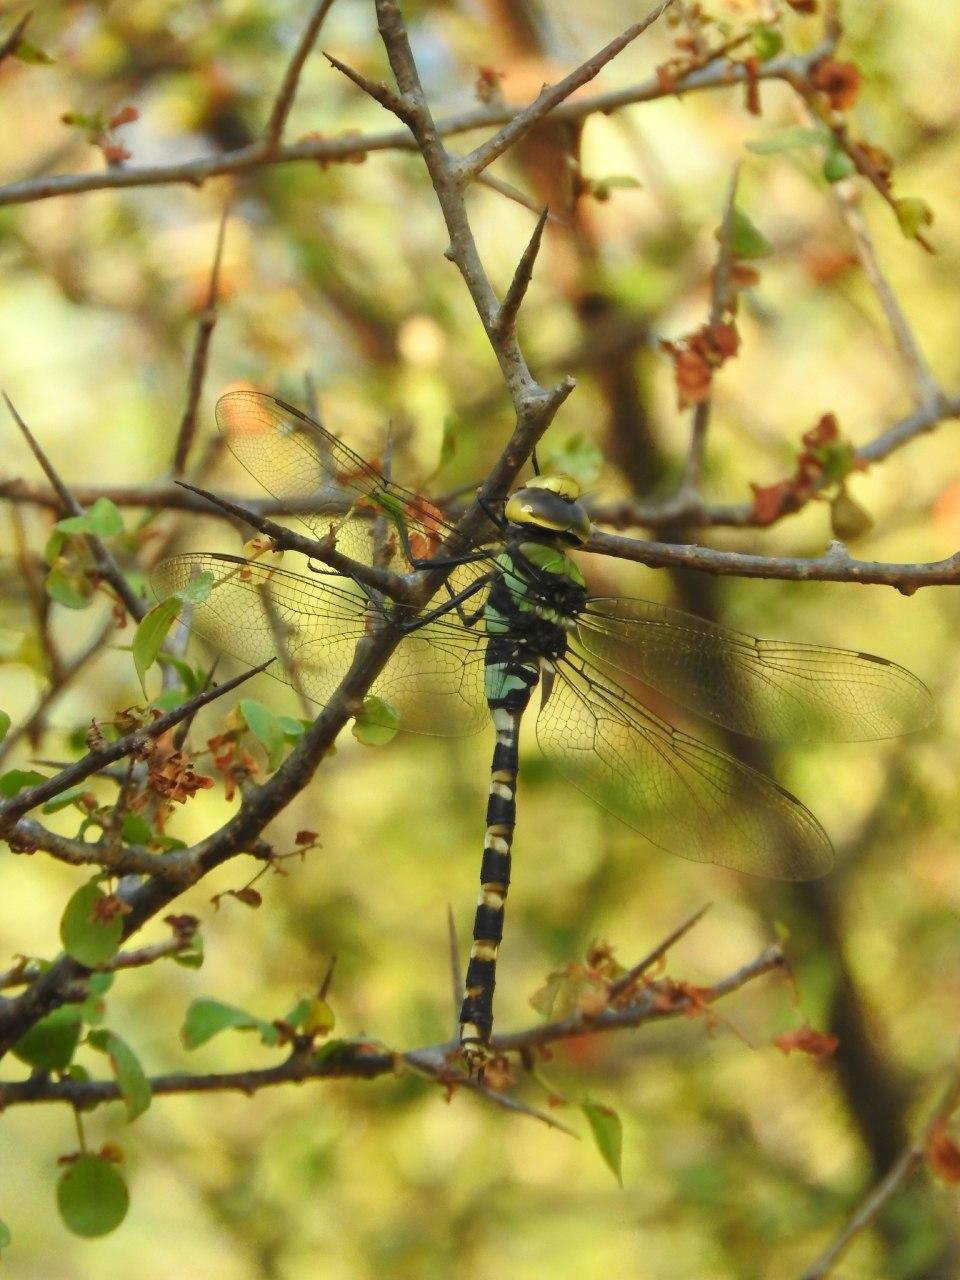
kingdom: Animalia
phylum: Arthropoda
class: Insecta
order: Odonata
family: Aeshnidae
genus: Anax
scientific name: Anax immaculifrons
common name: Magnificent emperor
